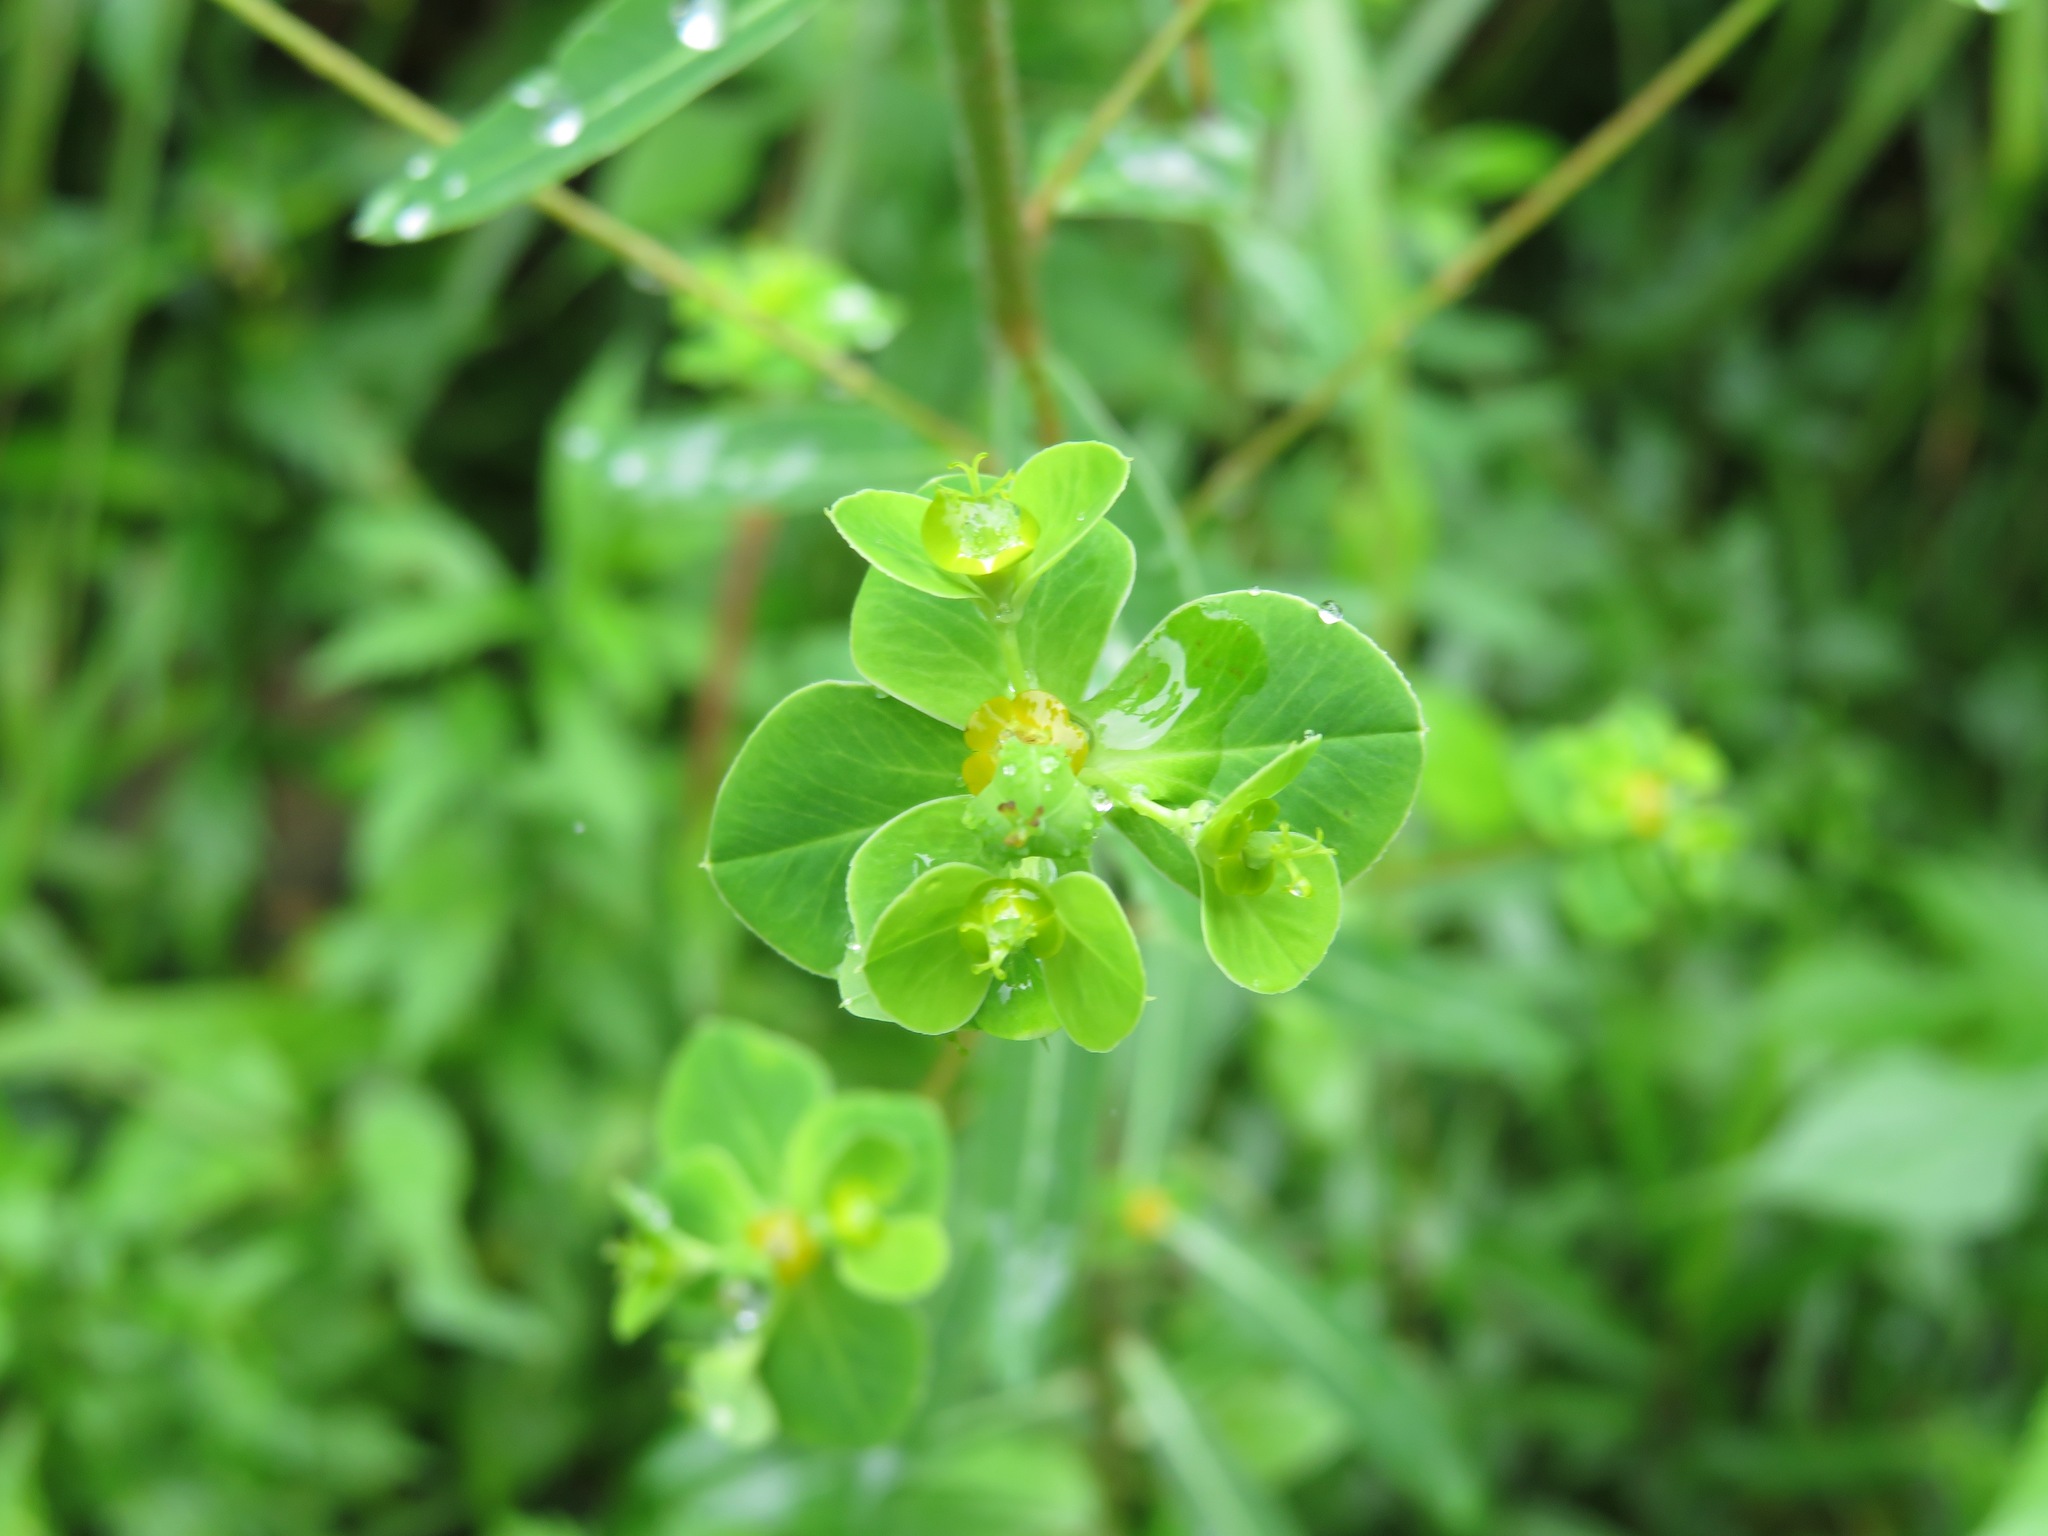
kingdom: Plantae
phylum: Tracheophyta
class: Magnoliopsida
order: Malpighiales
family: Euphorbiaceae
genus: Euphorbia
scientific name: Euphorbia pekinensis
